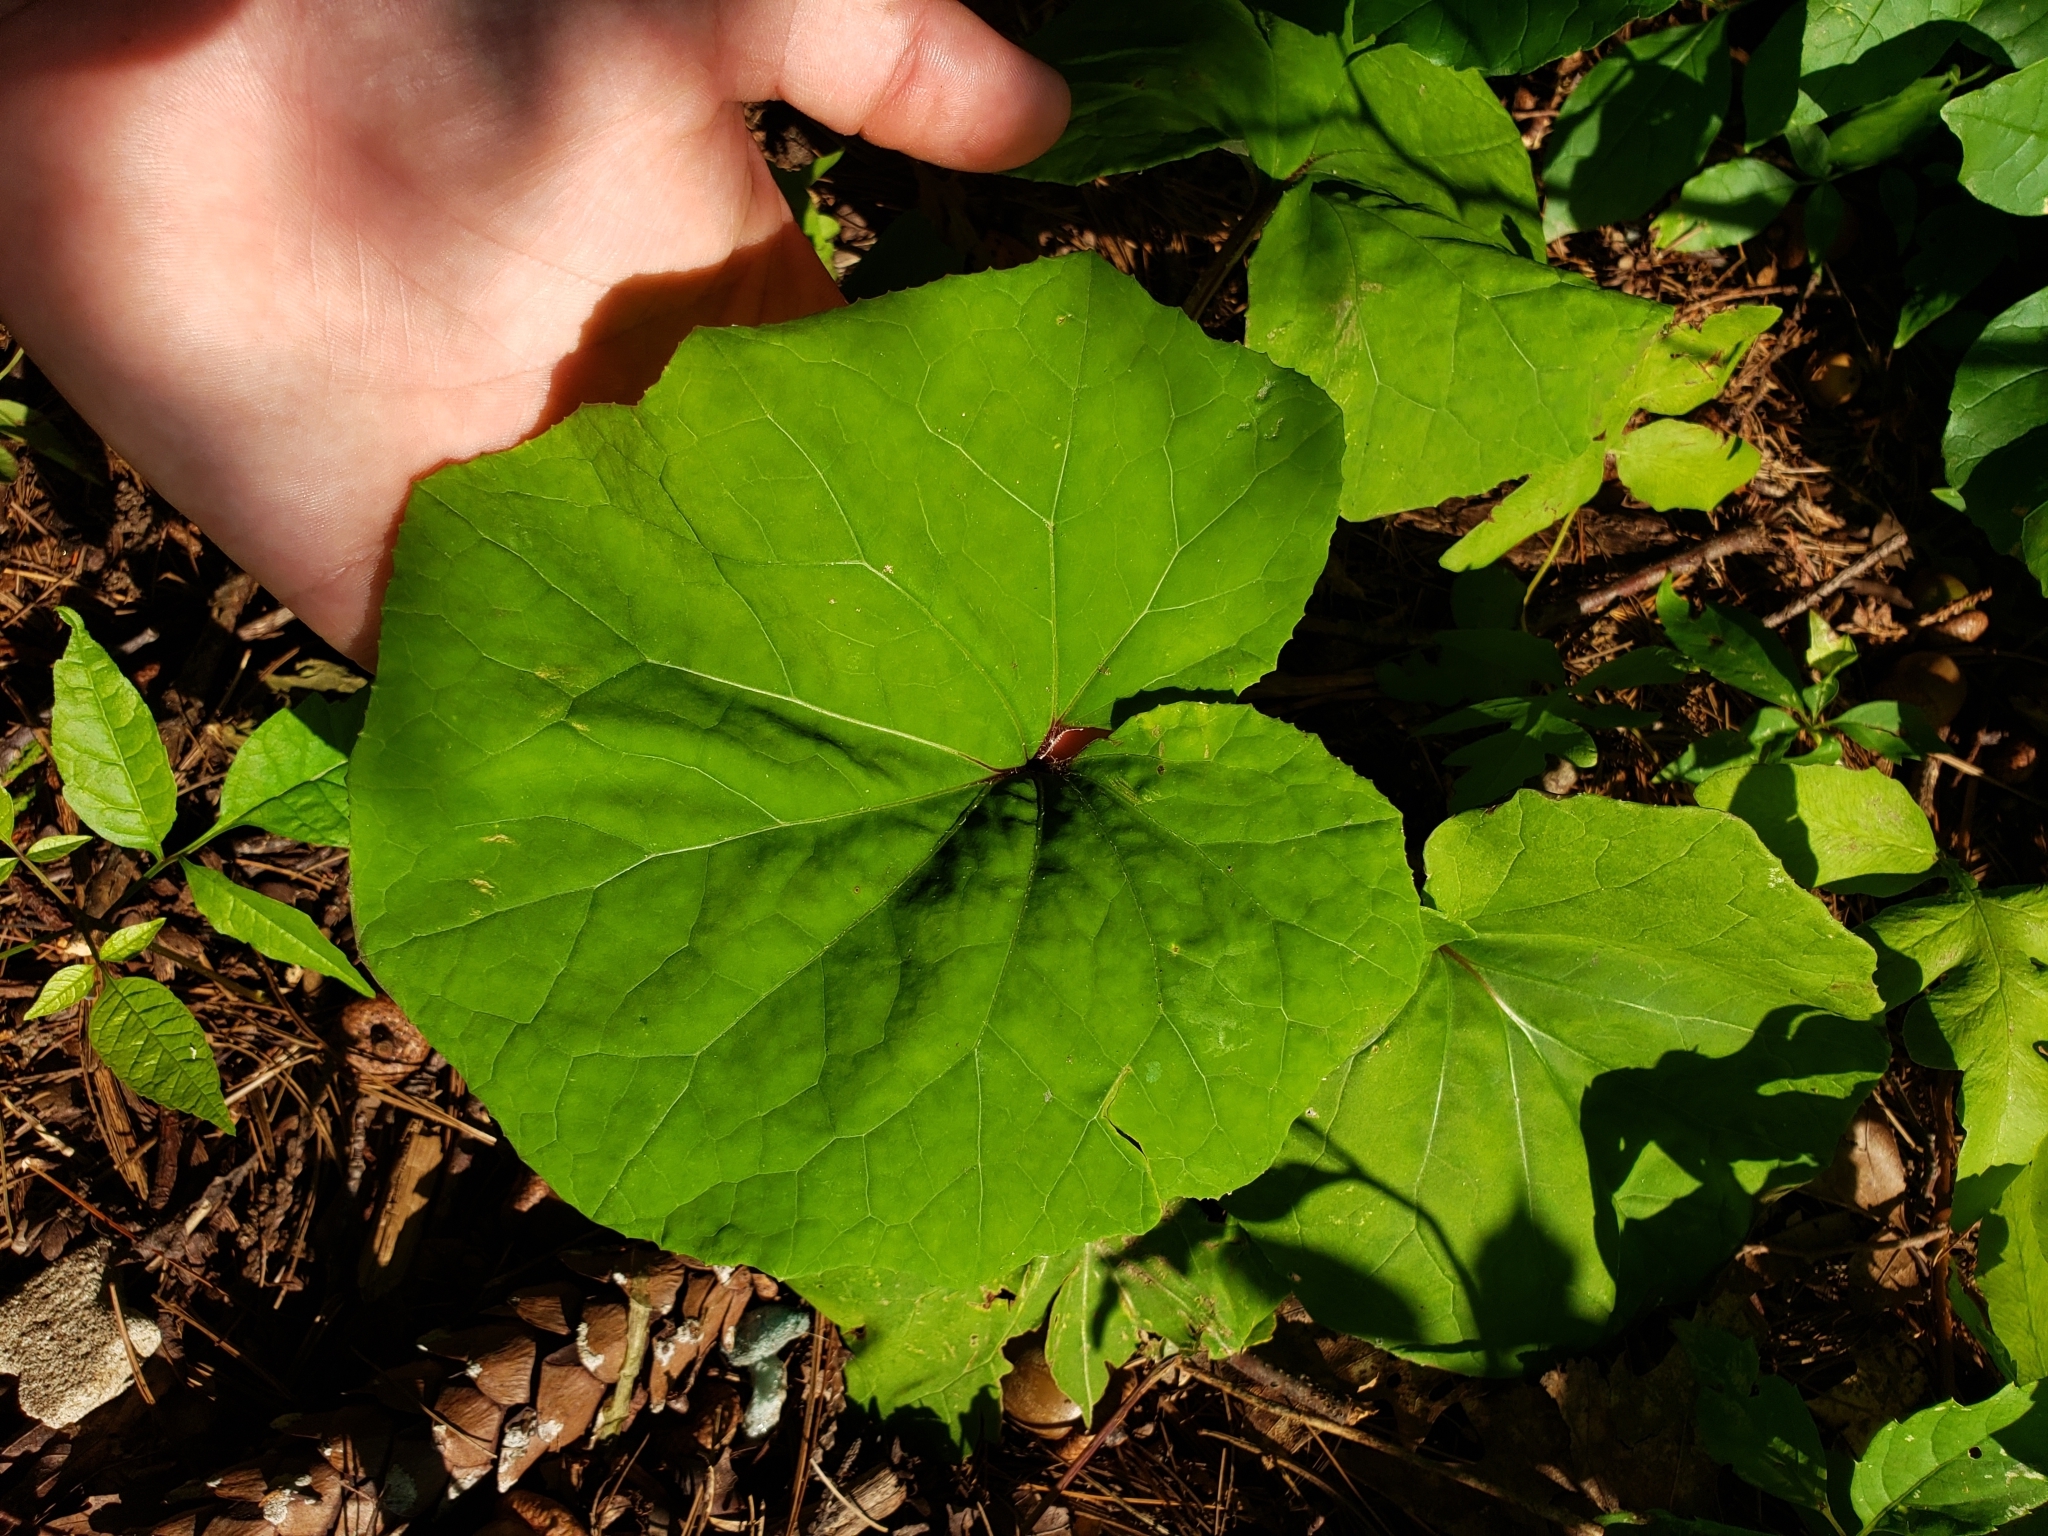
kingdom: Plantae
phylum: Tracheophyta
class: Magnoliopsida
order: Asterales
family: Asteraceae
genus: Tussilago
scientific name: Tussilago farfara
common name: Coltsfoot
